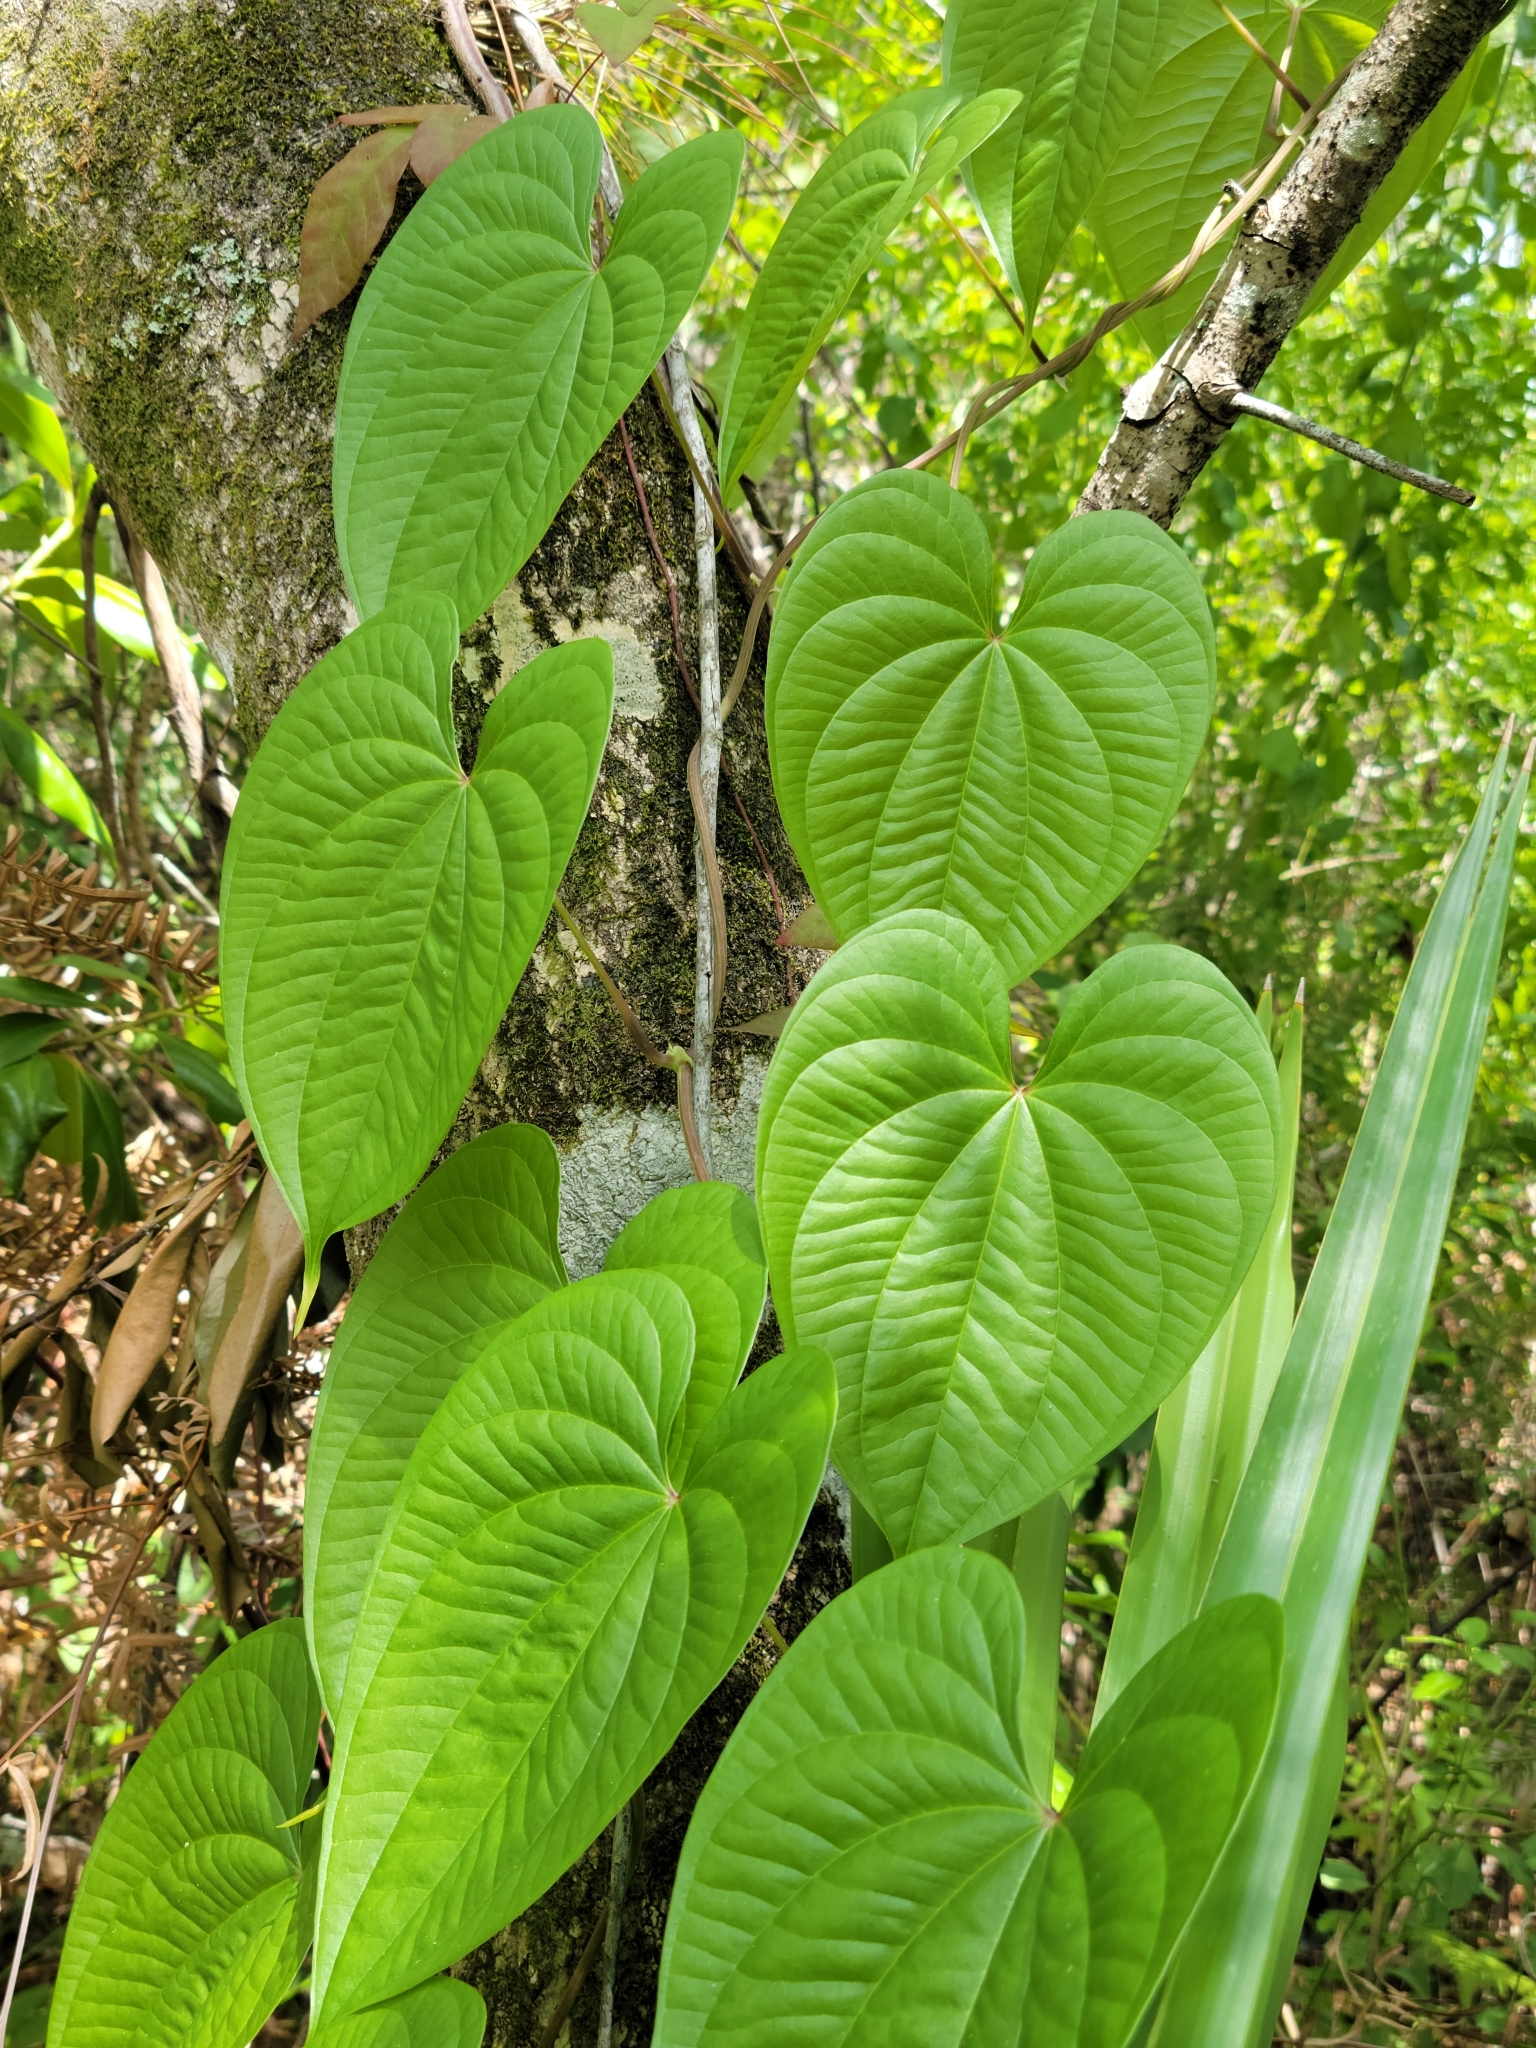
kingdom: Plantae
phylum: Tracheophyta
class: Liliopsida
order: Dioscoreales
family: Dioscoreaceae
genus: Dioscorea
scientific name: Dioscorea bulbifera
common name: Air yam
